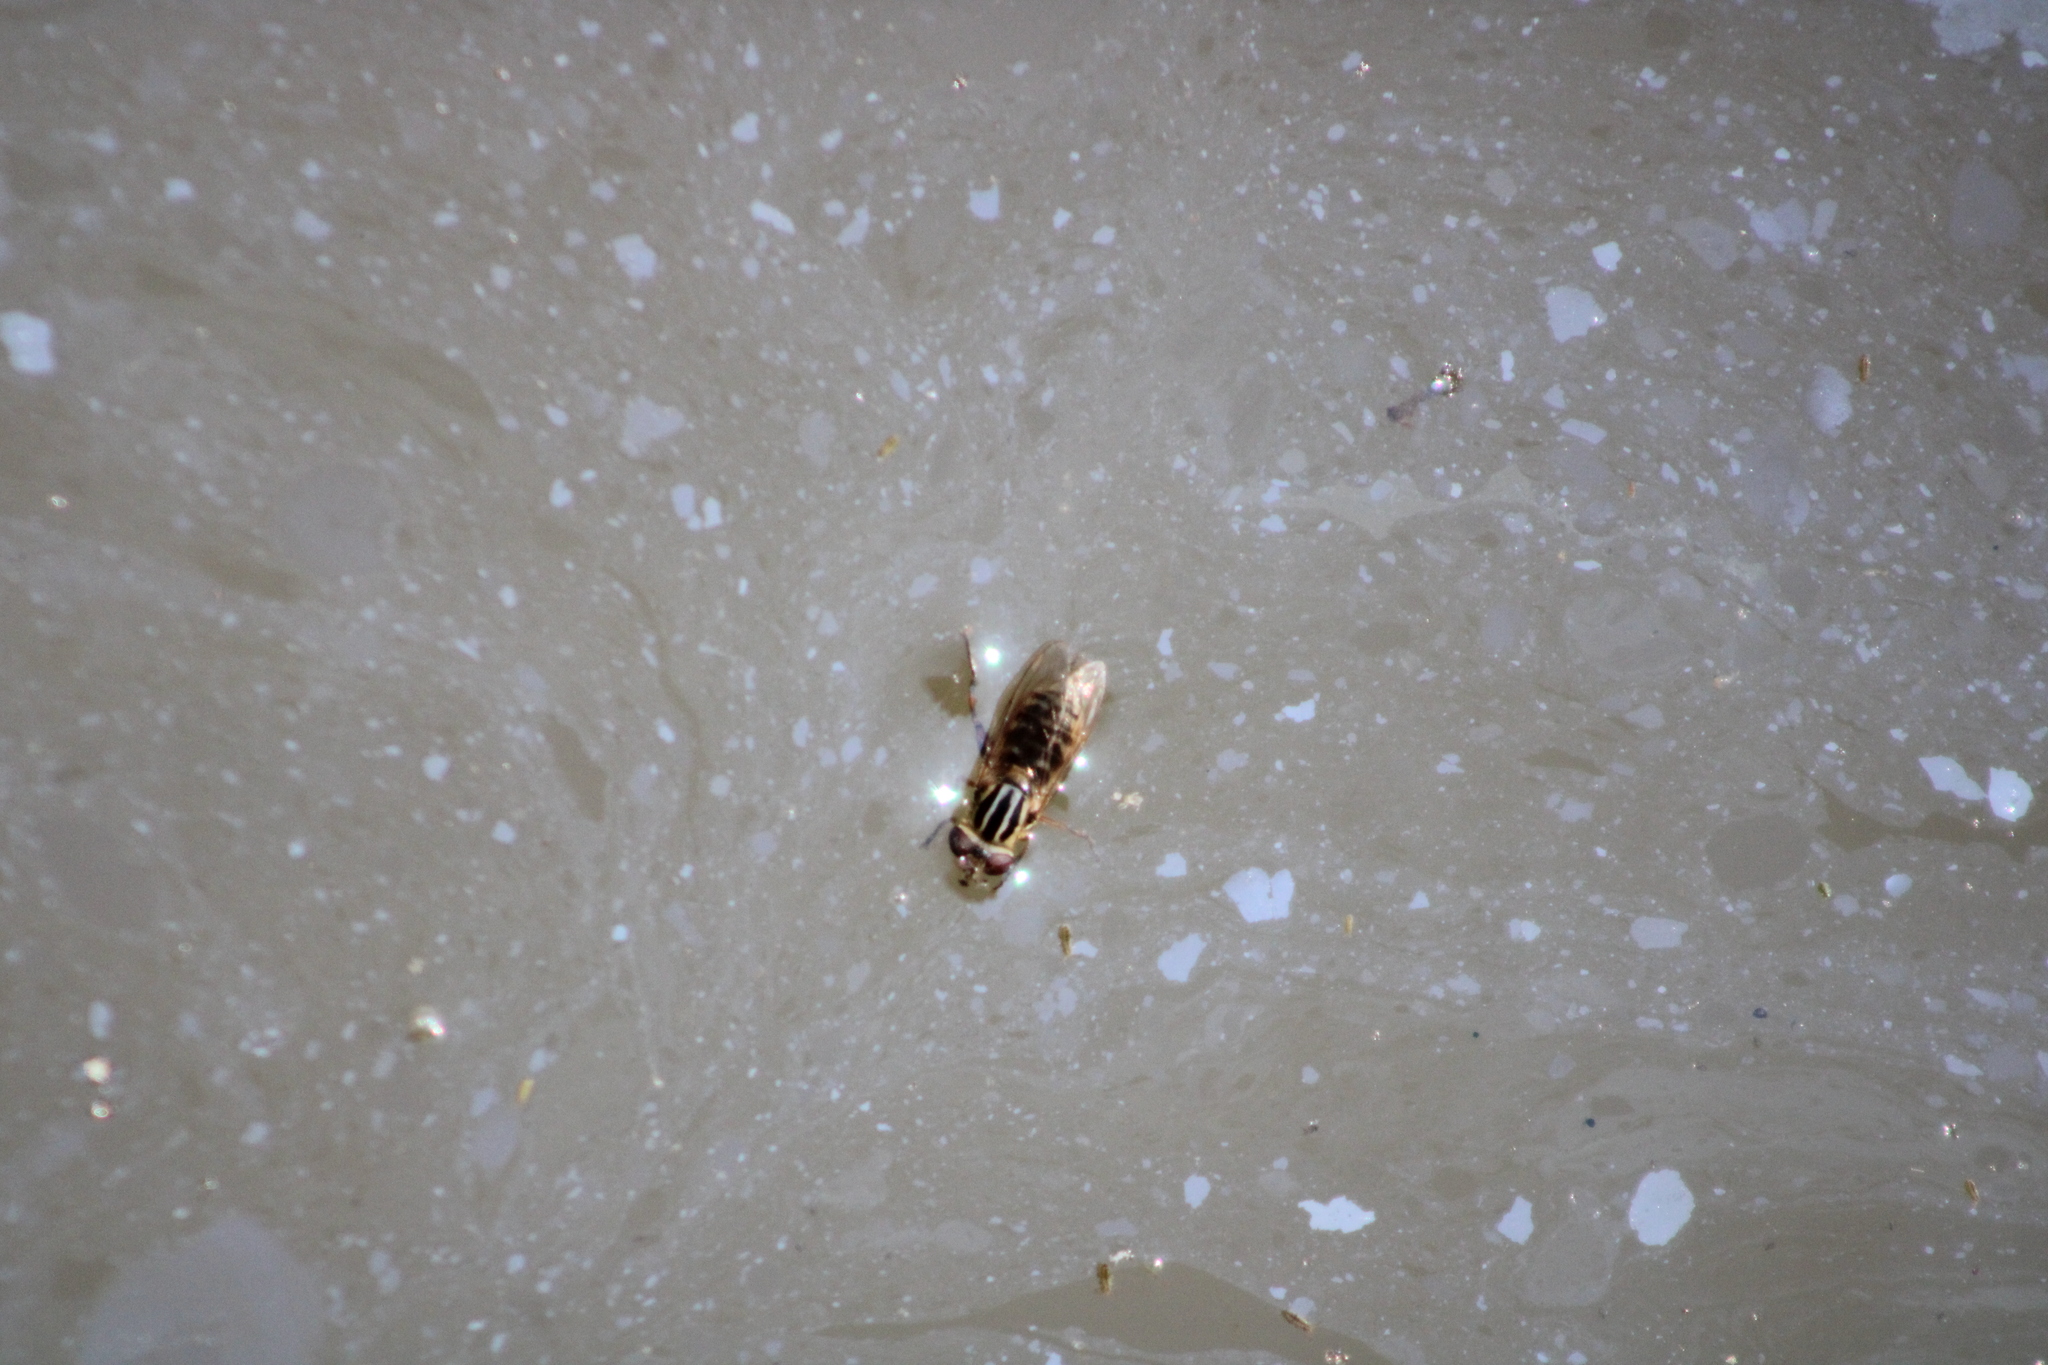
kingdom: Animalia
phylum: Arthropoda
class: Insecta
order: Diptera
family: Syrphidae
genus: Eurimyia
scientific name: Eurimyia stipatus
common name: Long-nosed swamp fly
